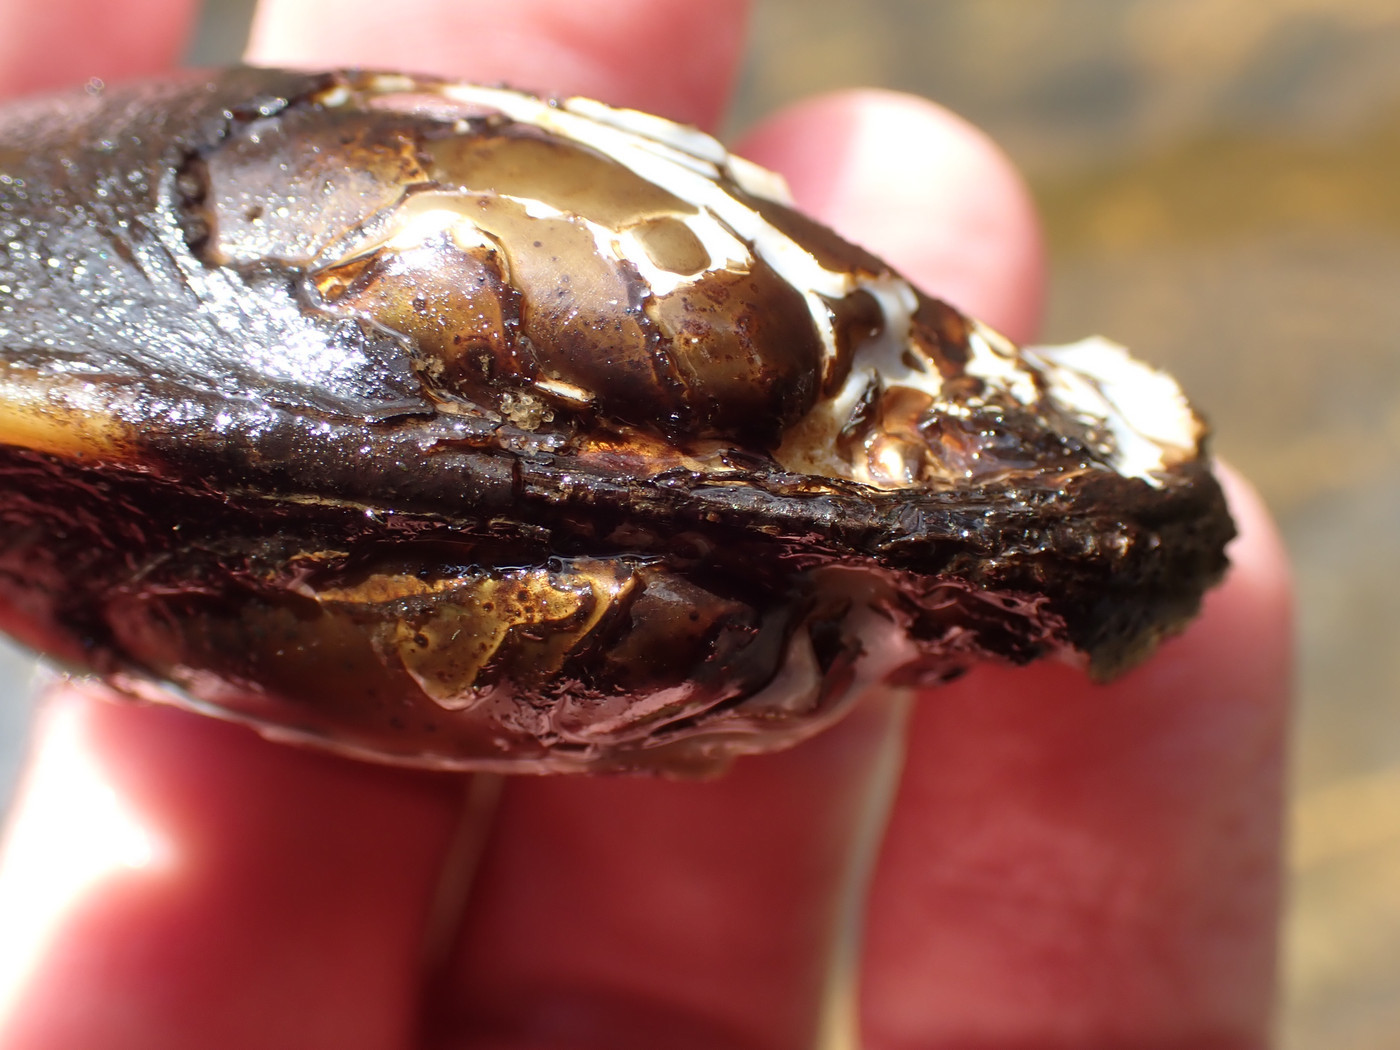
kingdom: Animalia
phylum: Mollusca
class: Bivalvia
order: Unionida
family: Unionidae
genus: Cambarunio
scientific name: Cambarunio dactylus
